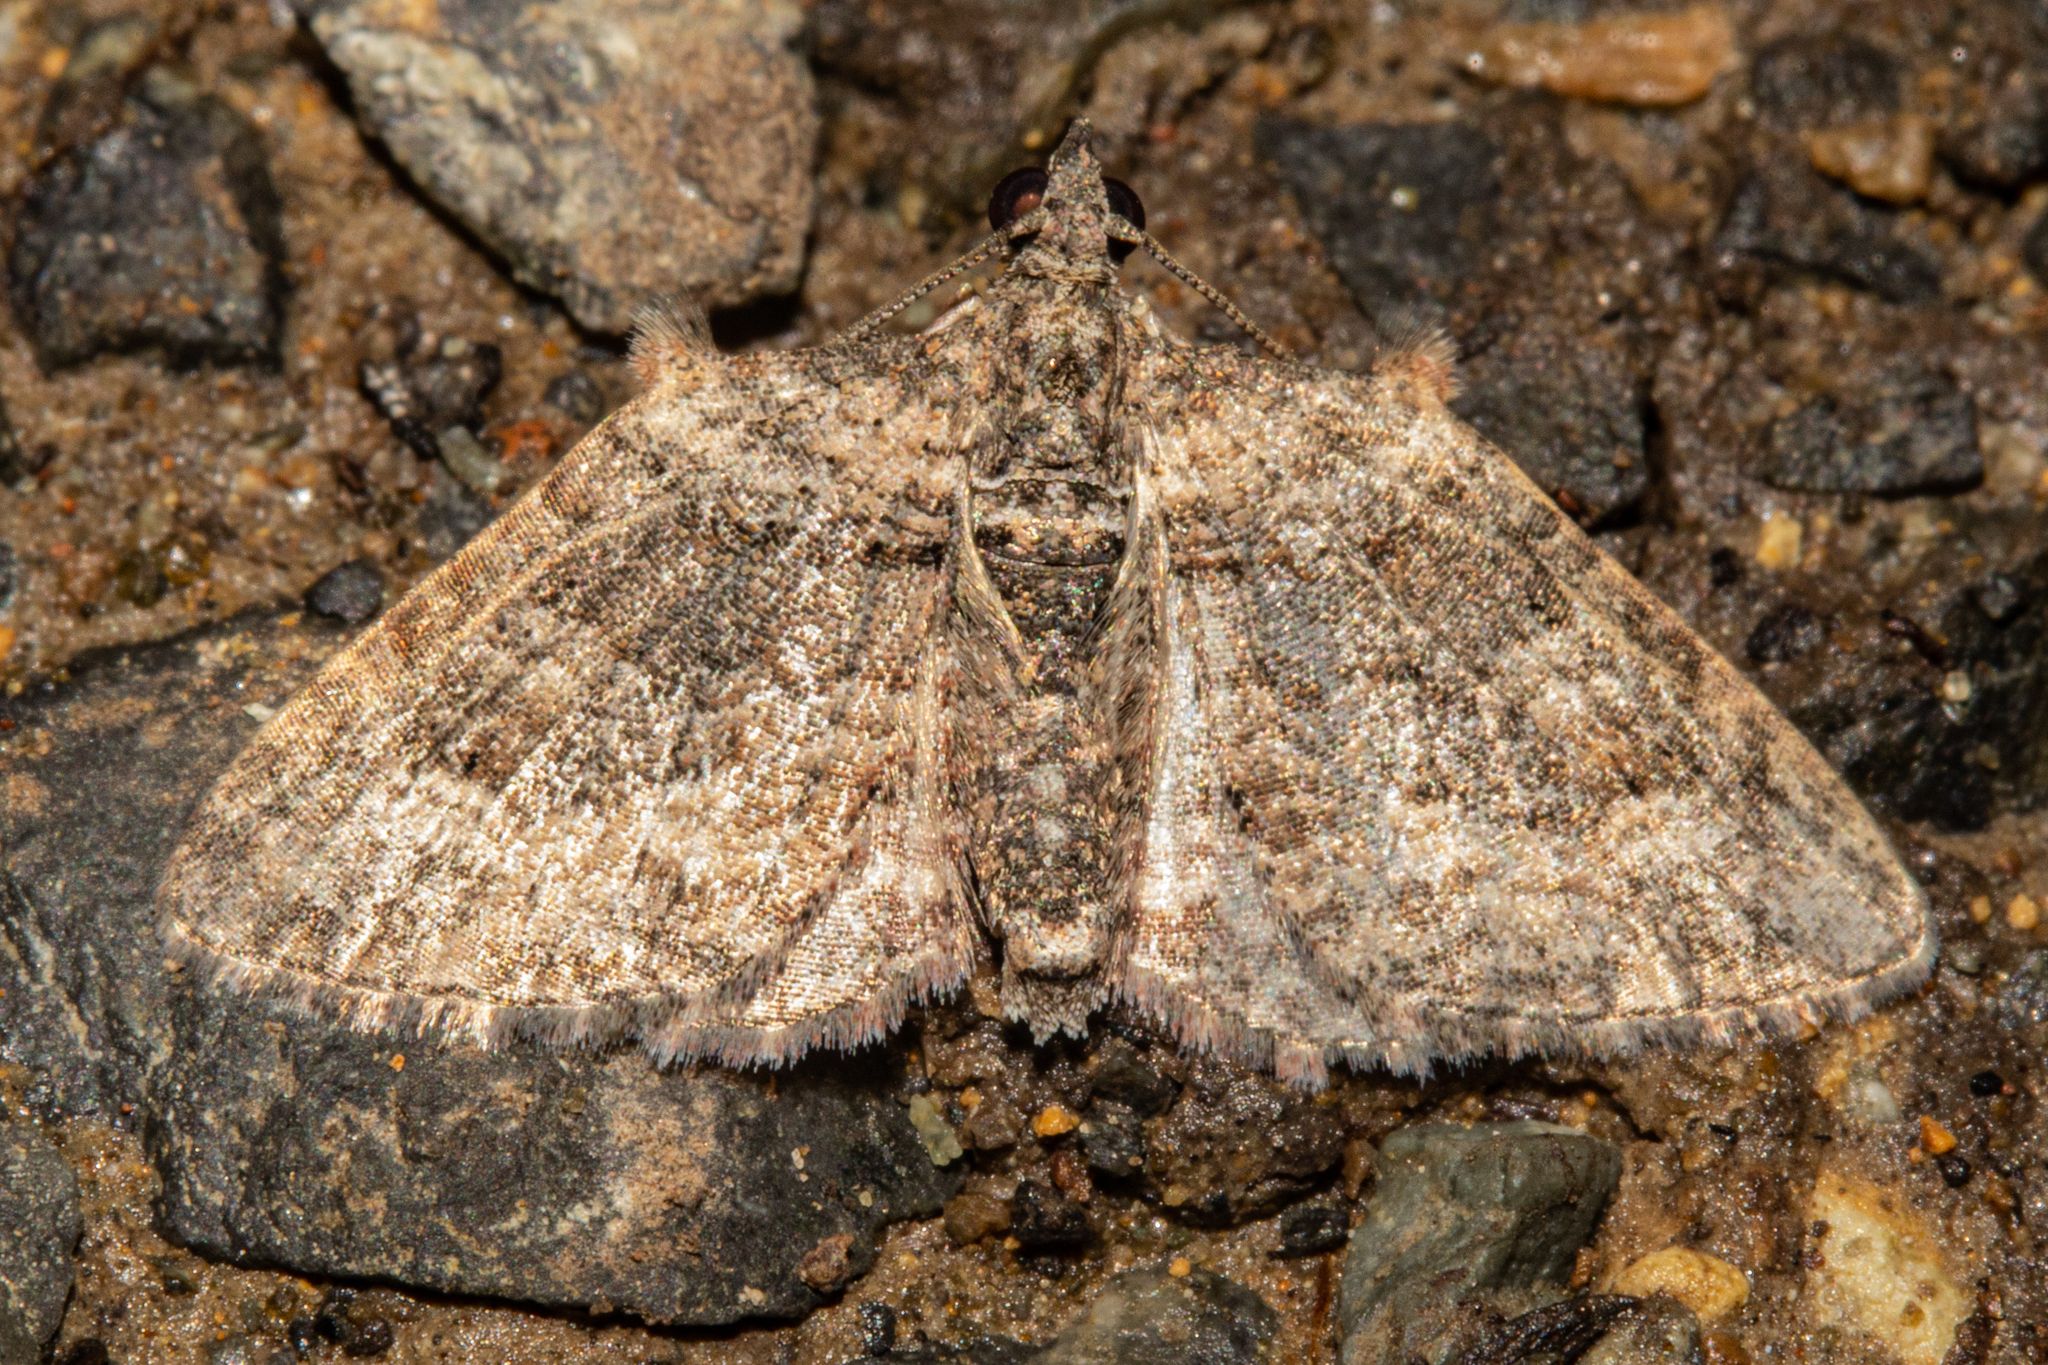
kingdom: Animalia
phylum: Arthropoda
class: Insecta
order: Lepidoptera
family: Geometridae
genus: Phrissogonus
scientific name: Phrissogonus laticostata
